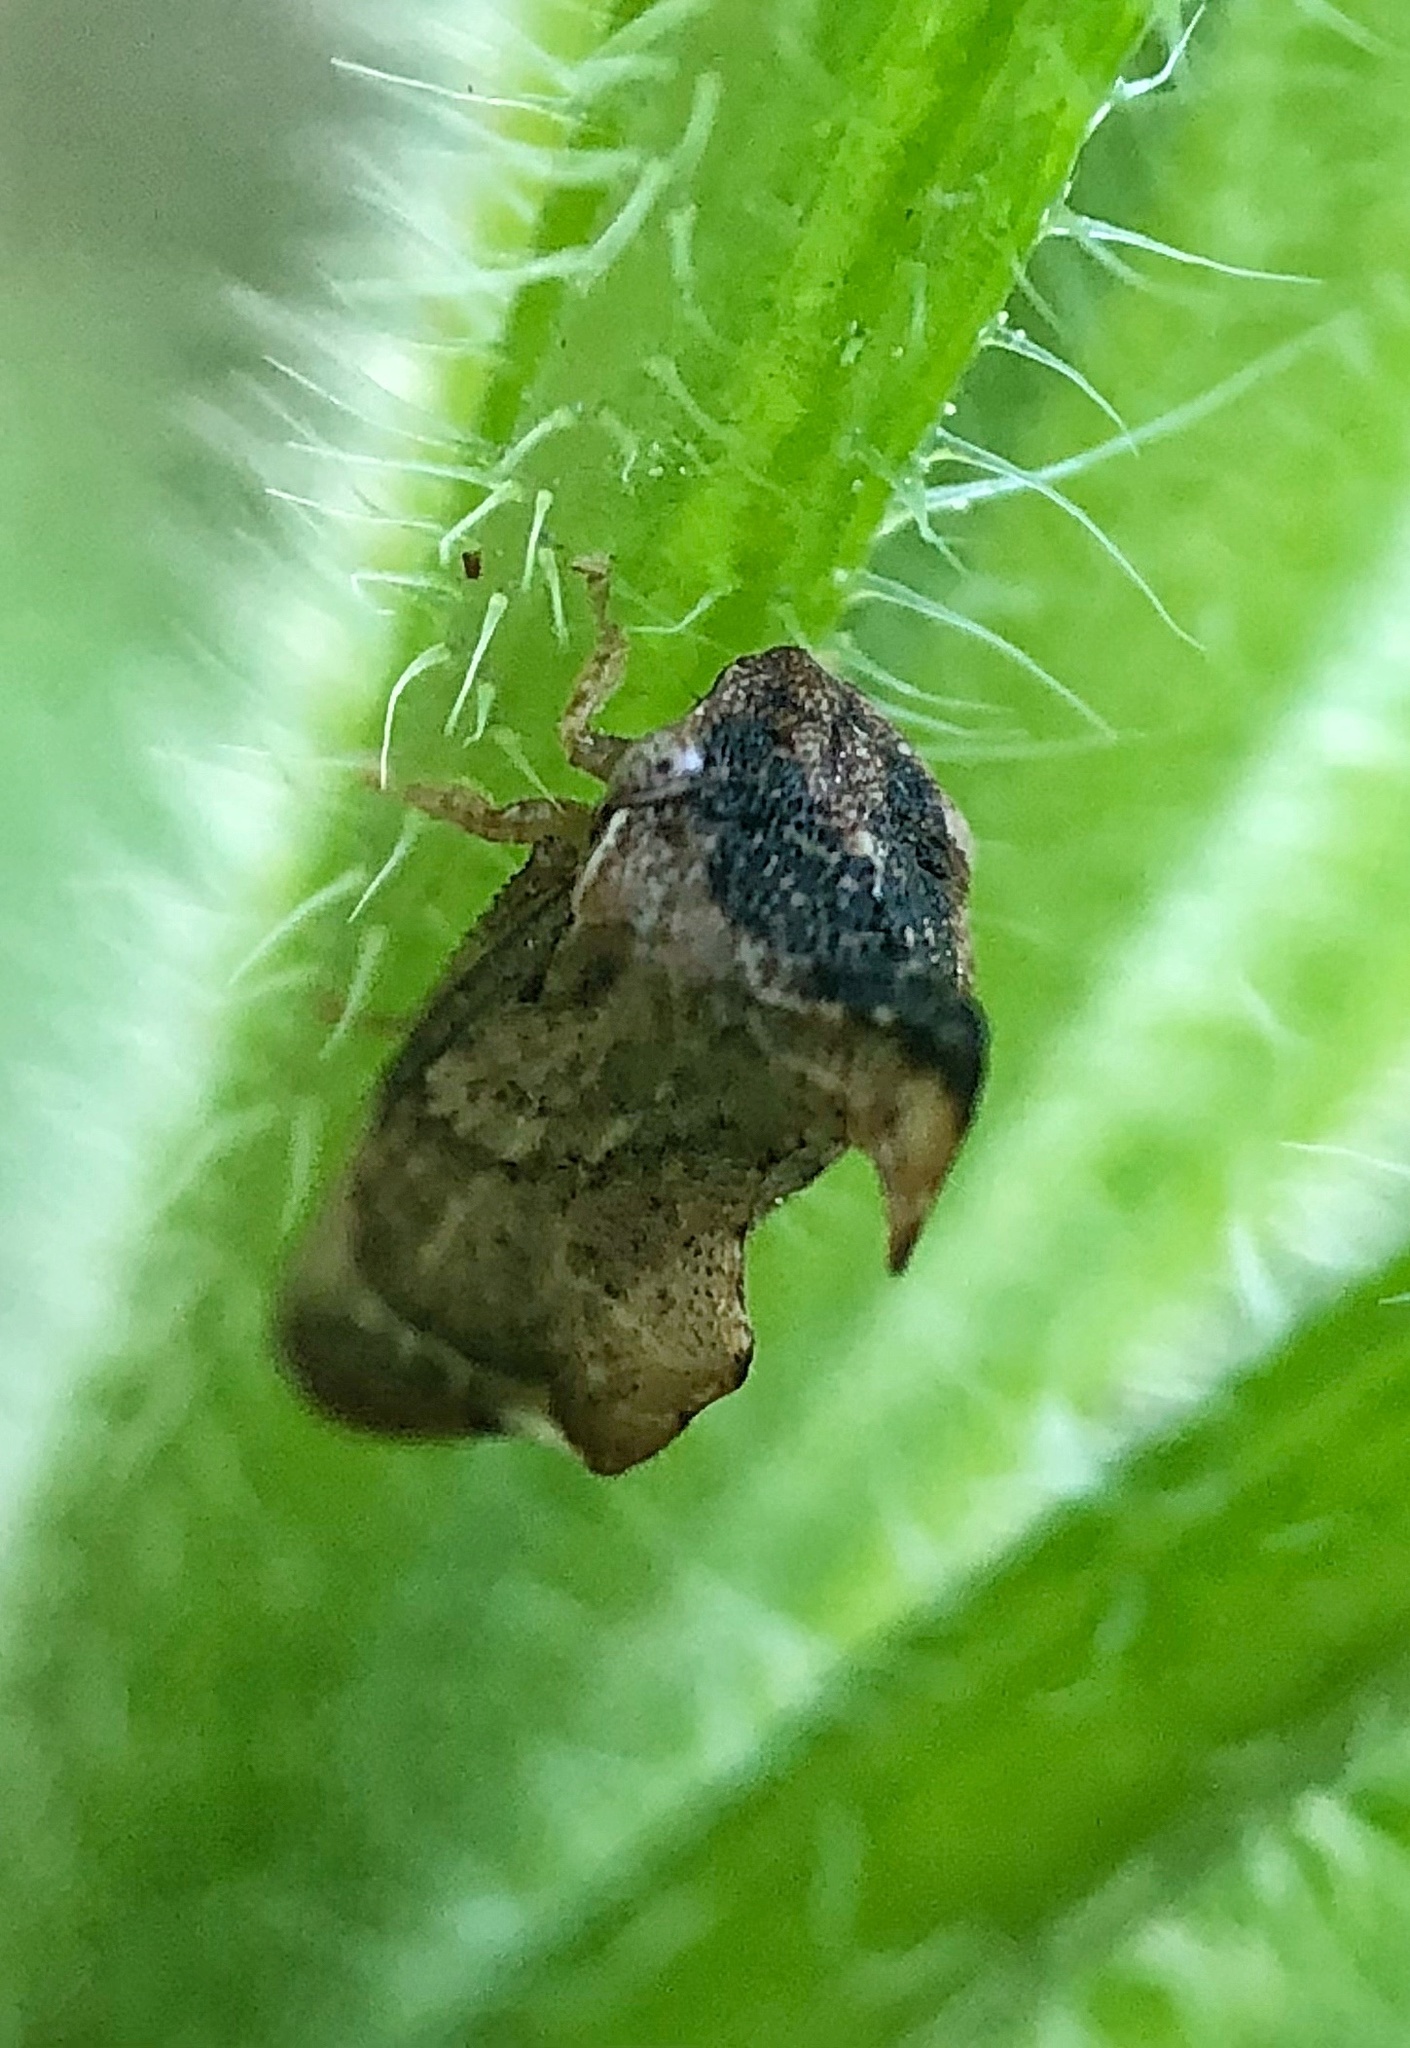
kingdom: Animalia
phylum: Arthropoda
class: Insecta
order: Hemiptera
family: Membracidae
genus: Entylia
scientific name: Entylia carinata
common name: Keeled treehopper
